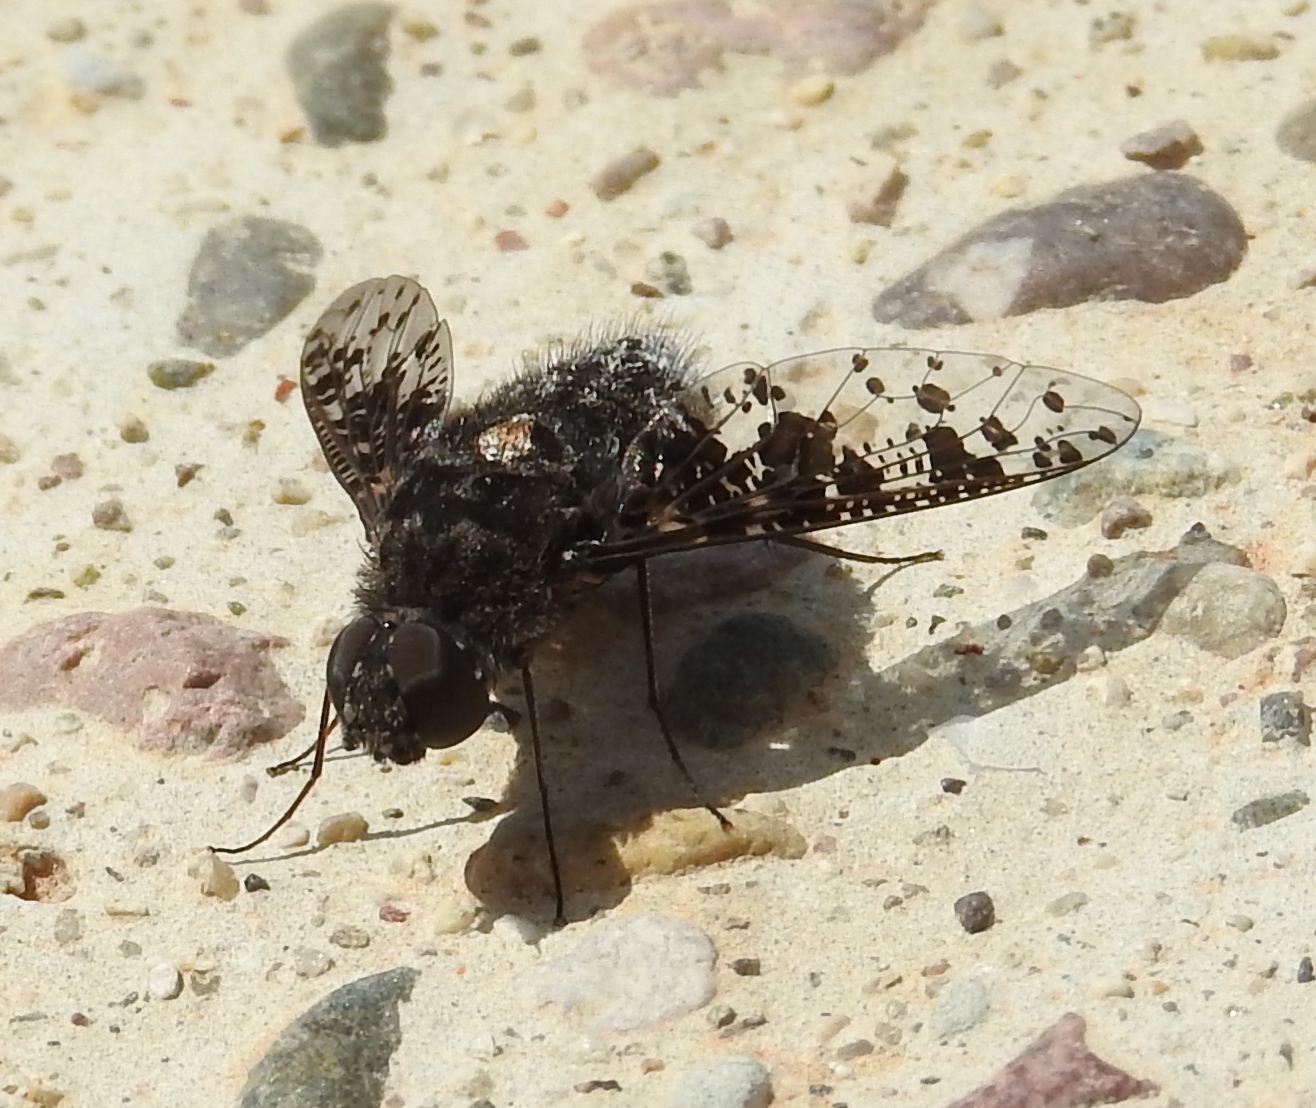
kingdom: Animalia
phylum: Arthropoda
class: Insecta
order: Diptera
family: Bombyliidae
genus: Anthrax
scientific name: Anthrax
